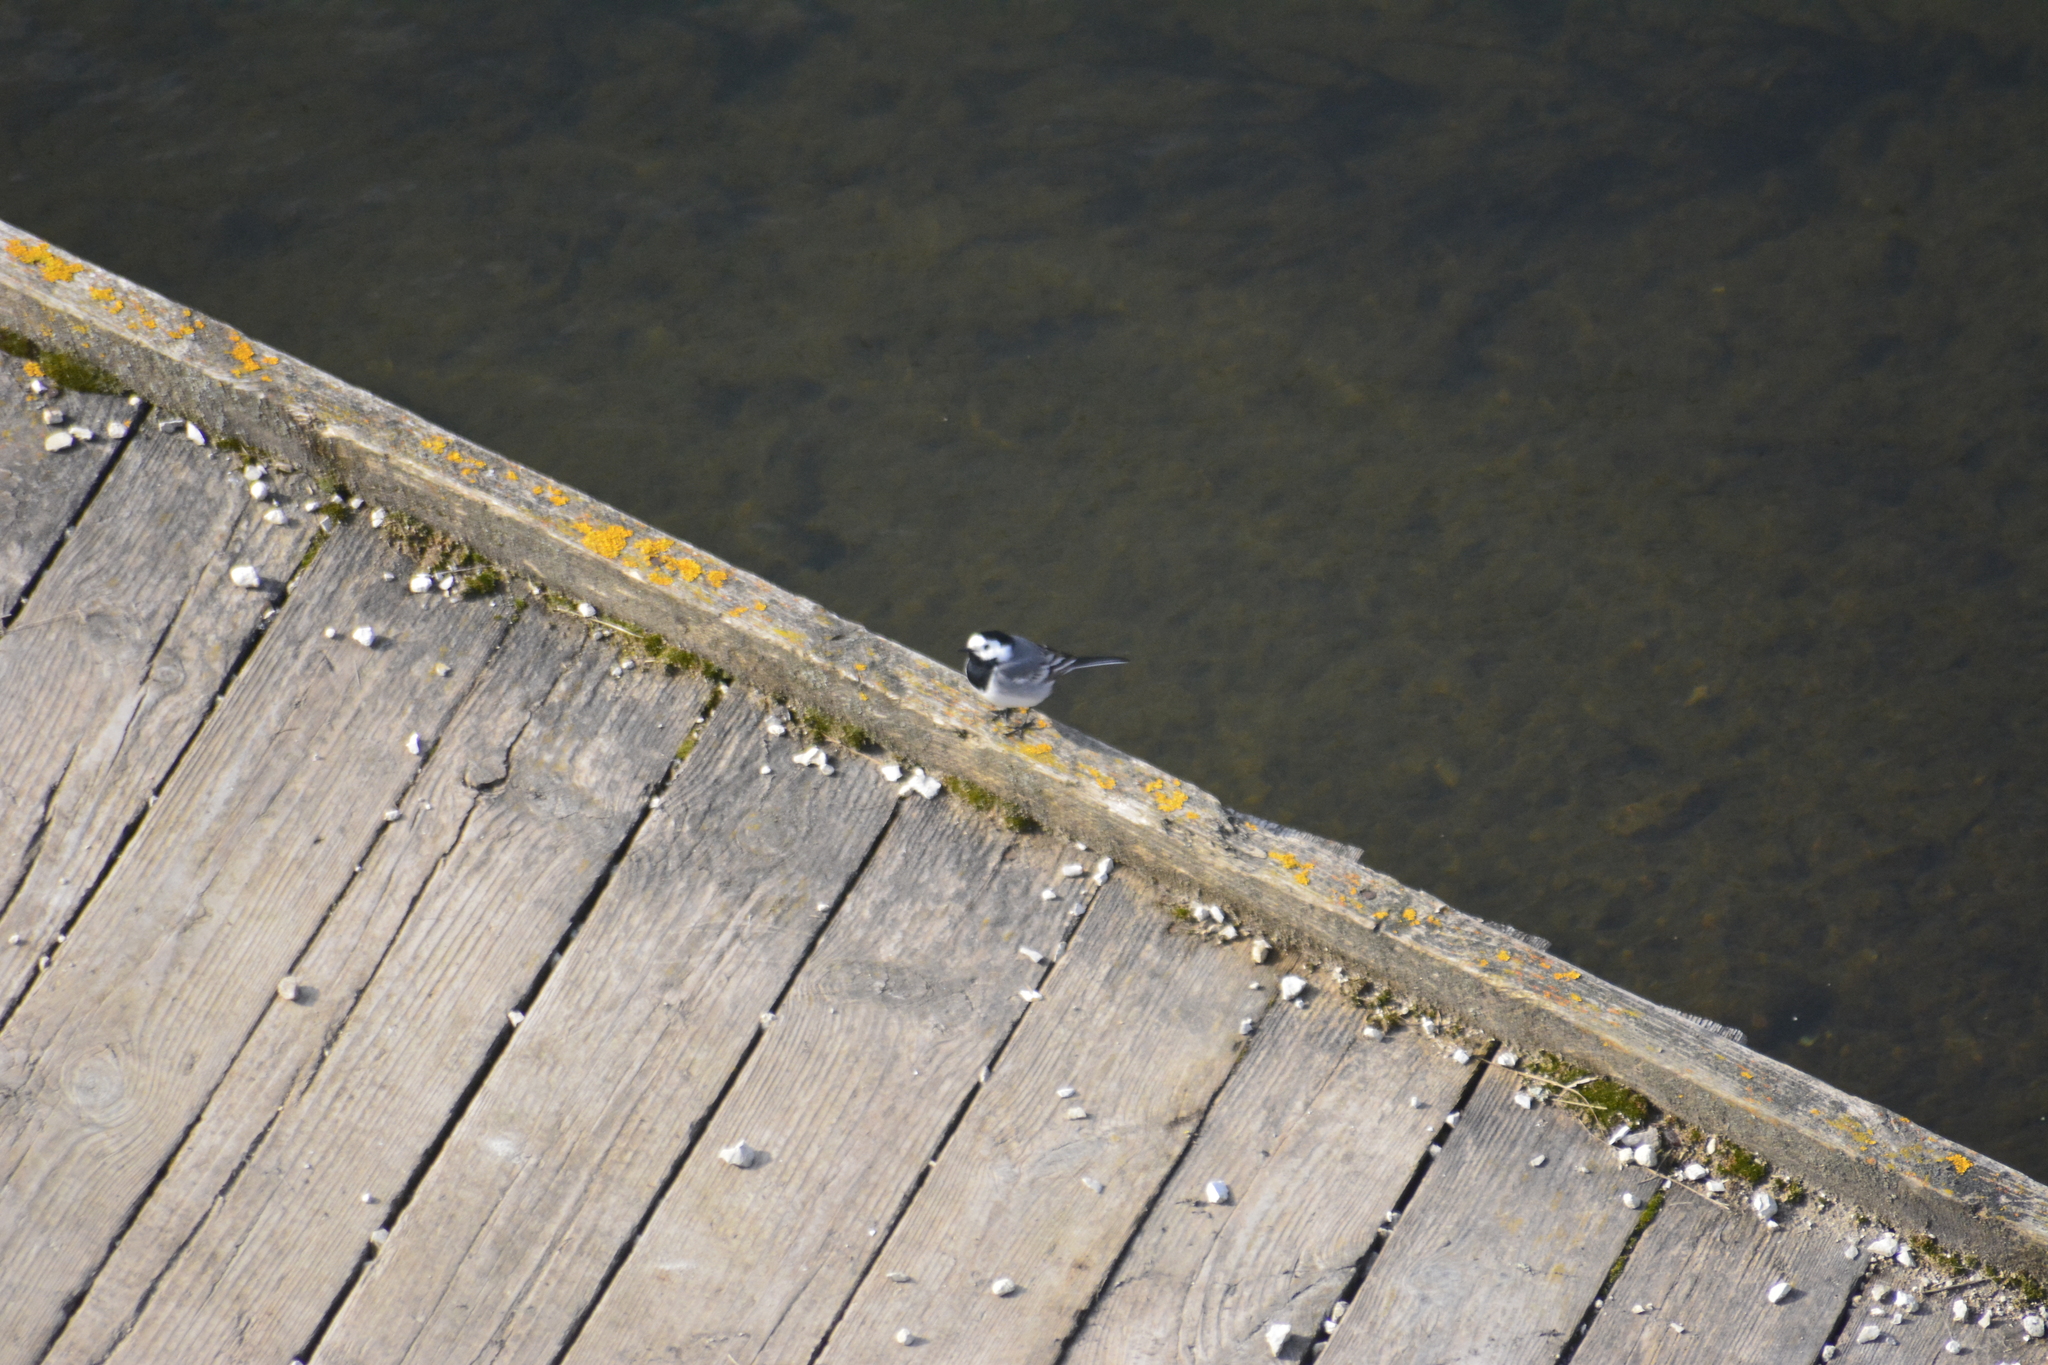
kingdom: Animalia
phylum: Chordata
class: Aves
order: Passeriformes
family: Motacillidae
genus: Motacilla
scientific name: Motacilla alba
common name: White wagtail
